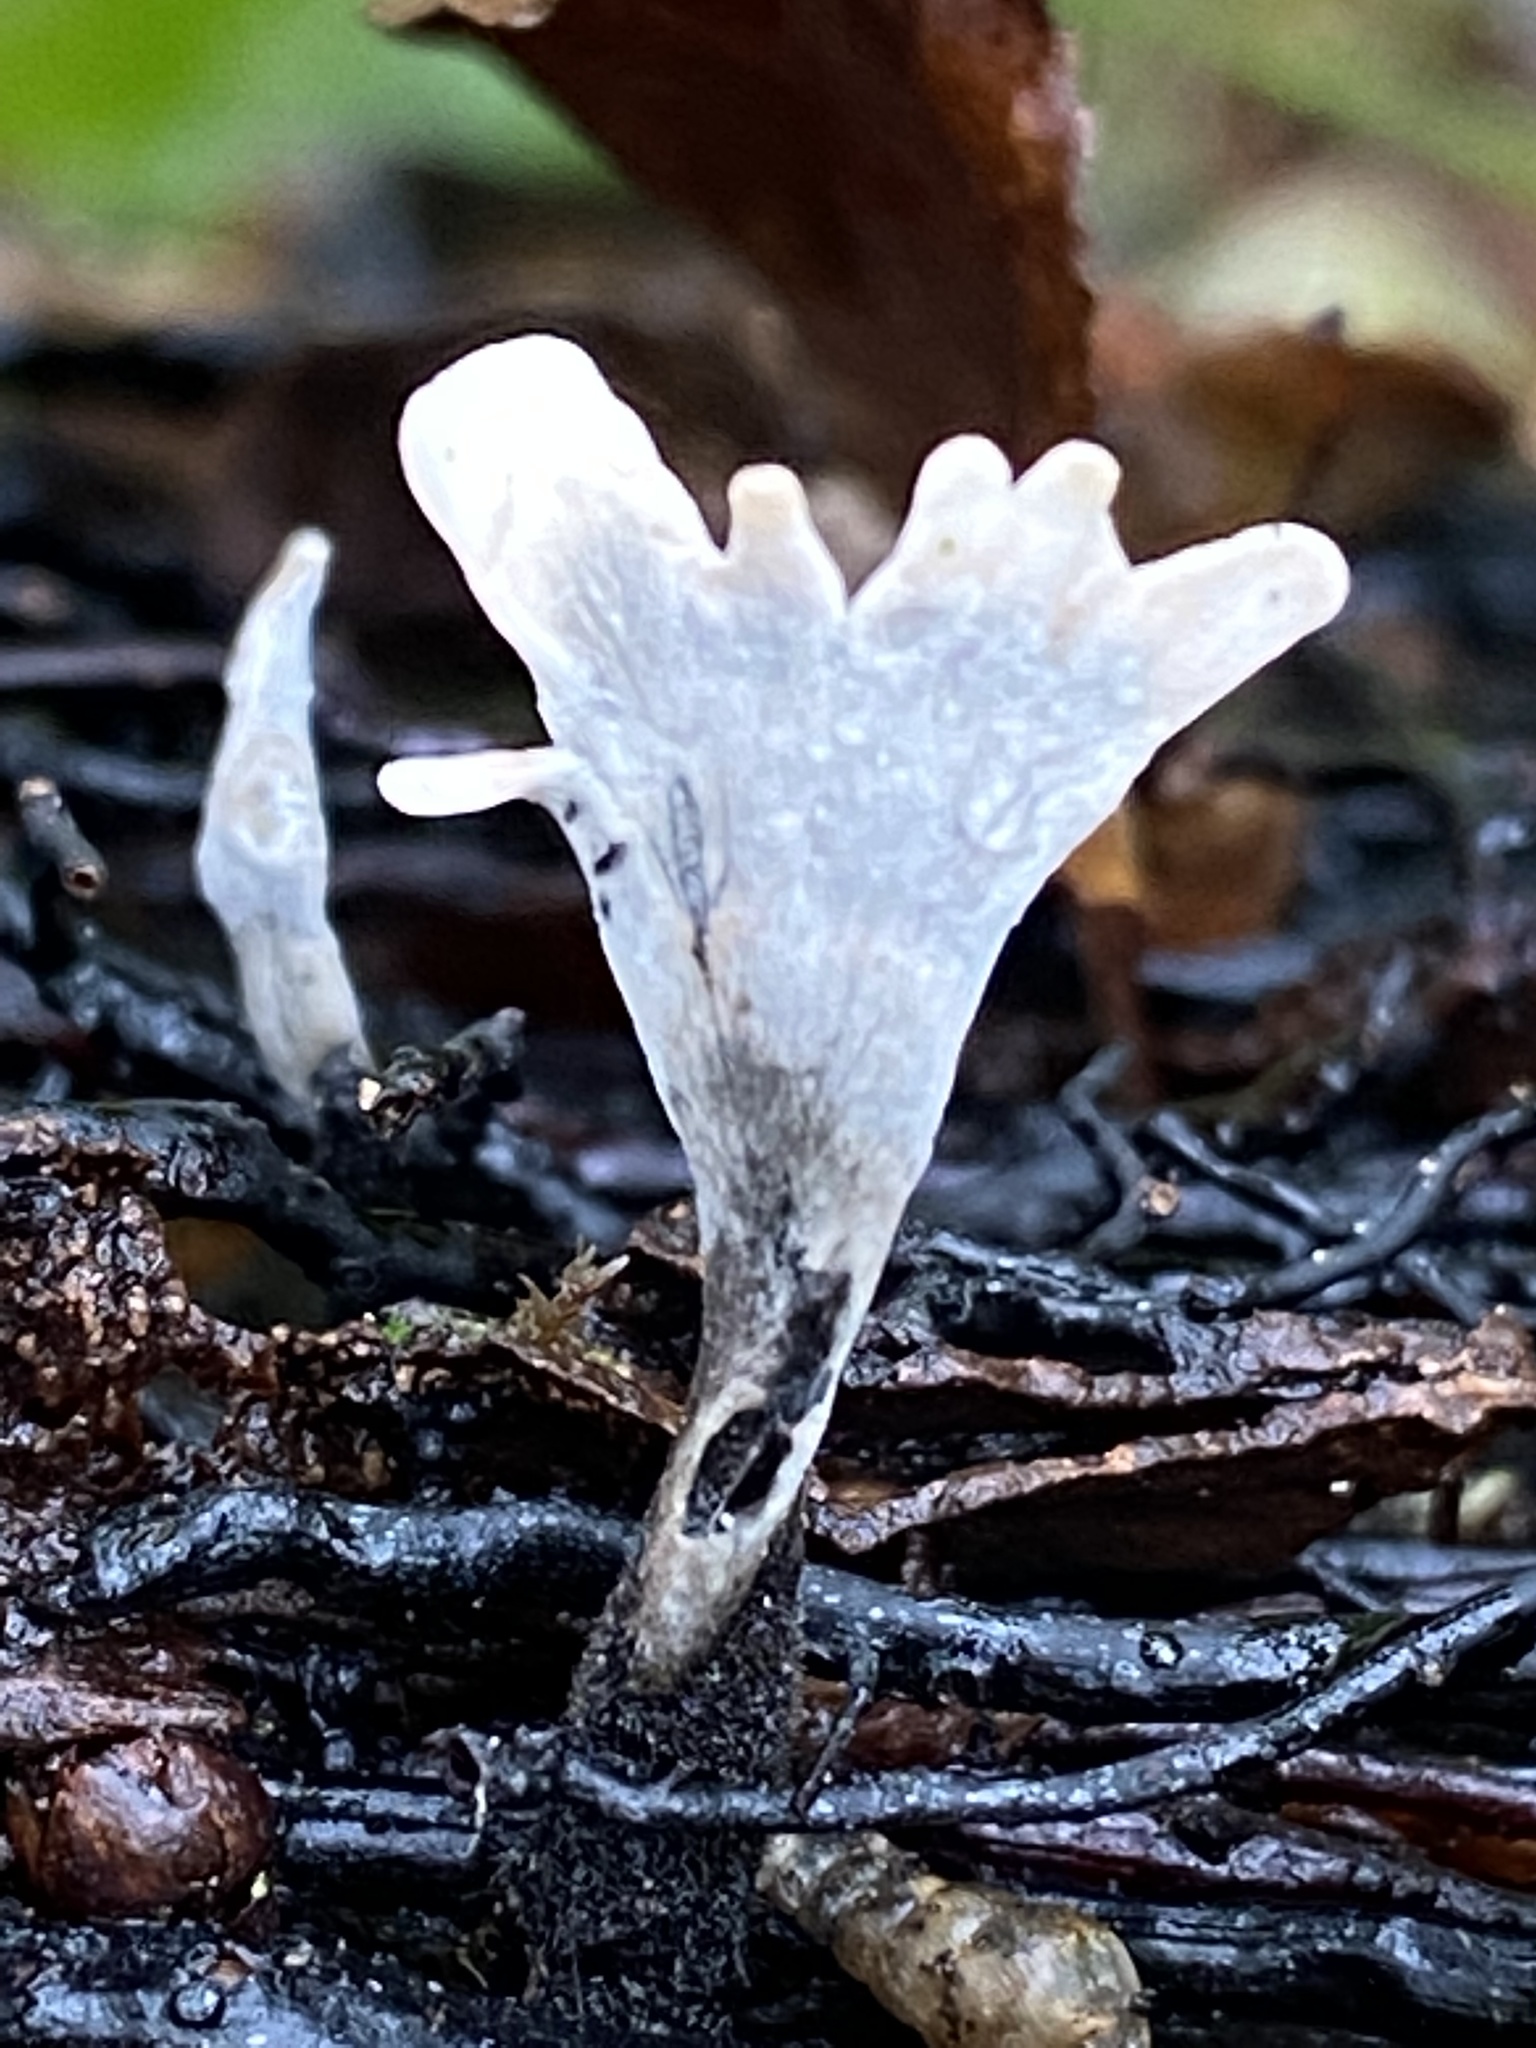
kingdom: Fungi
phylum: Ascomycota
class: Sordariomycetes
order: Xylariales
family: Xylariaceae
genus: Xylaria
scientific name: Xylaria hypoxylon
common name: Candle-snuff fungus
